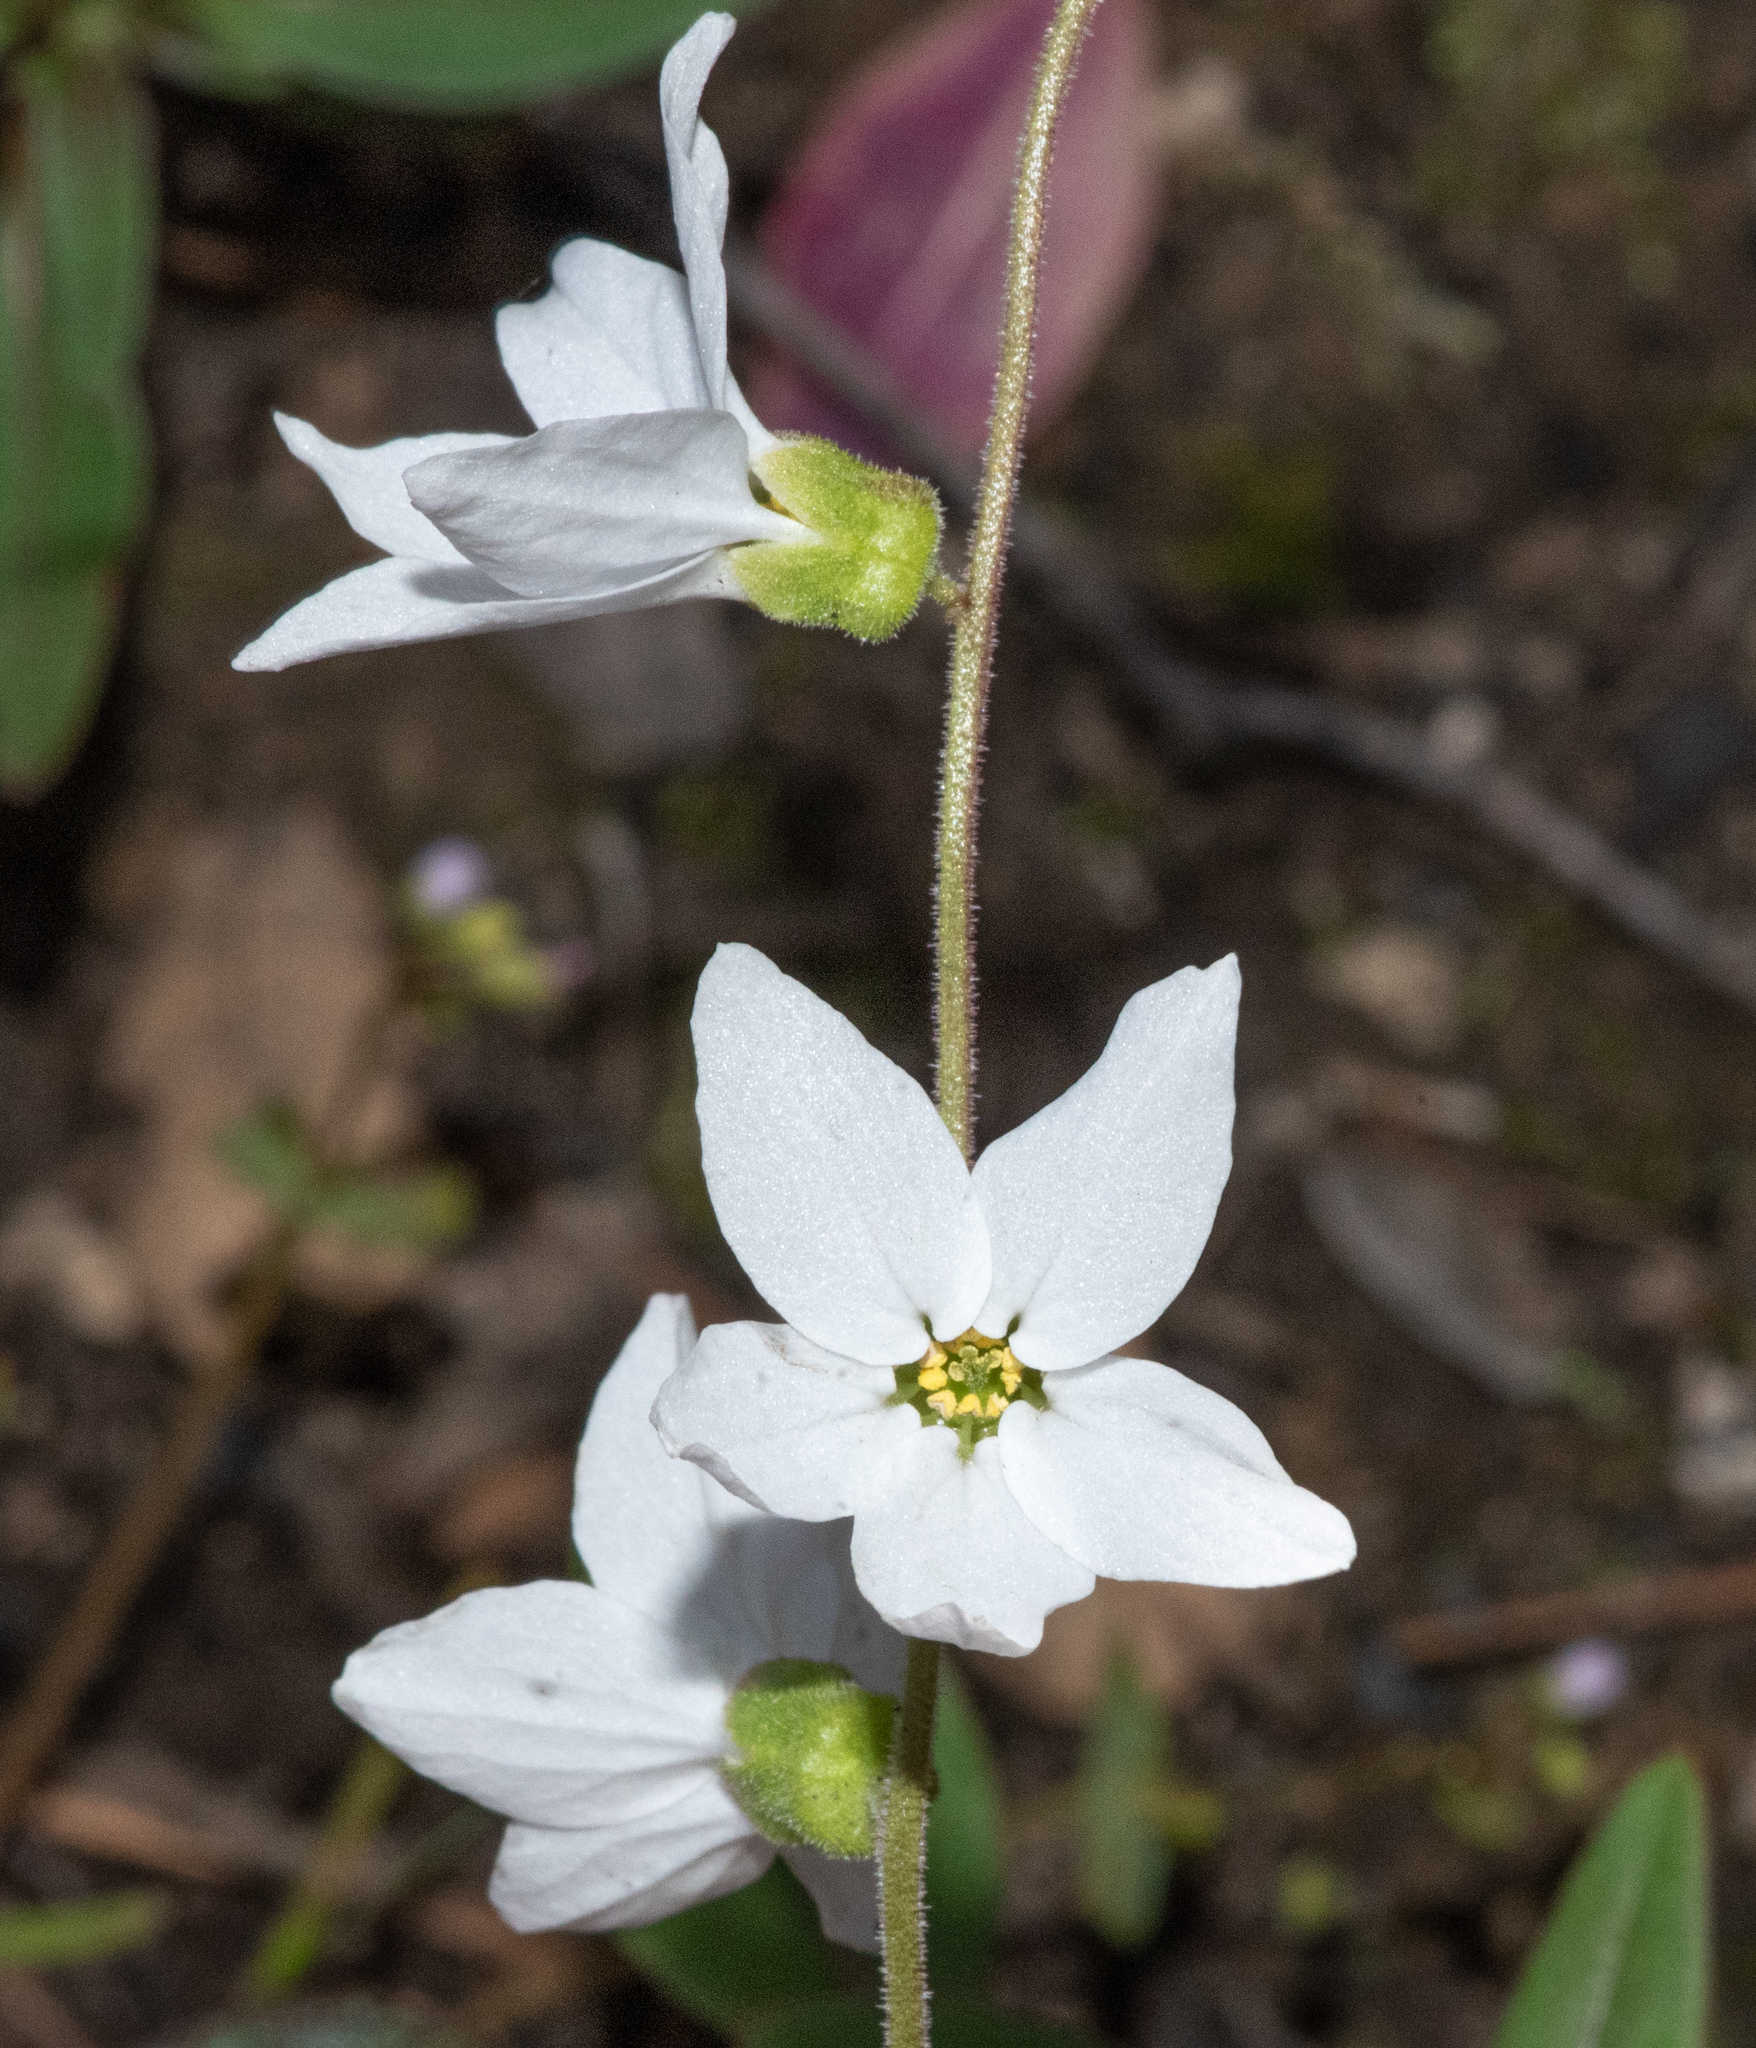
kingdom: Plantae
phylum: Tracheophyta
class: Magnoliopsida
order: Saxifragales
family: Saxifragaceae
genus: Lithophragma
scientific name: Lithophragma bolanderi
